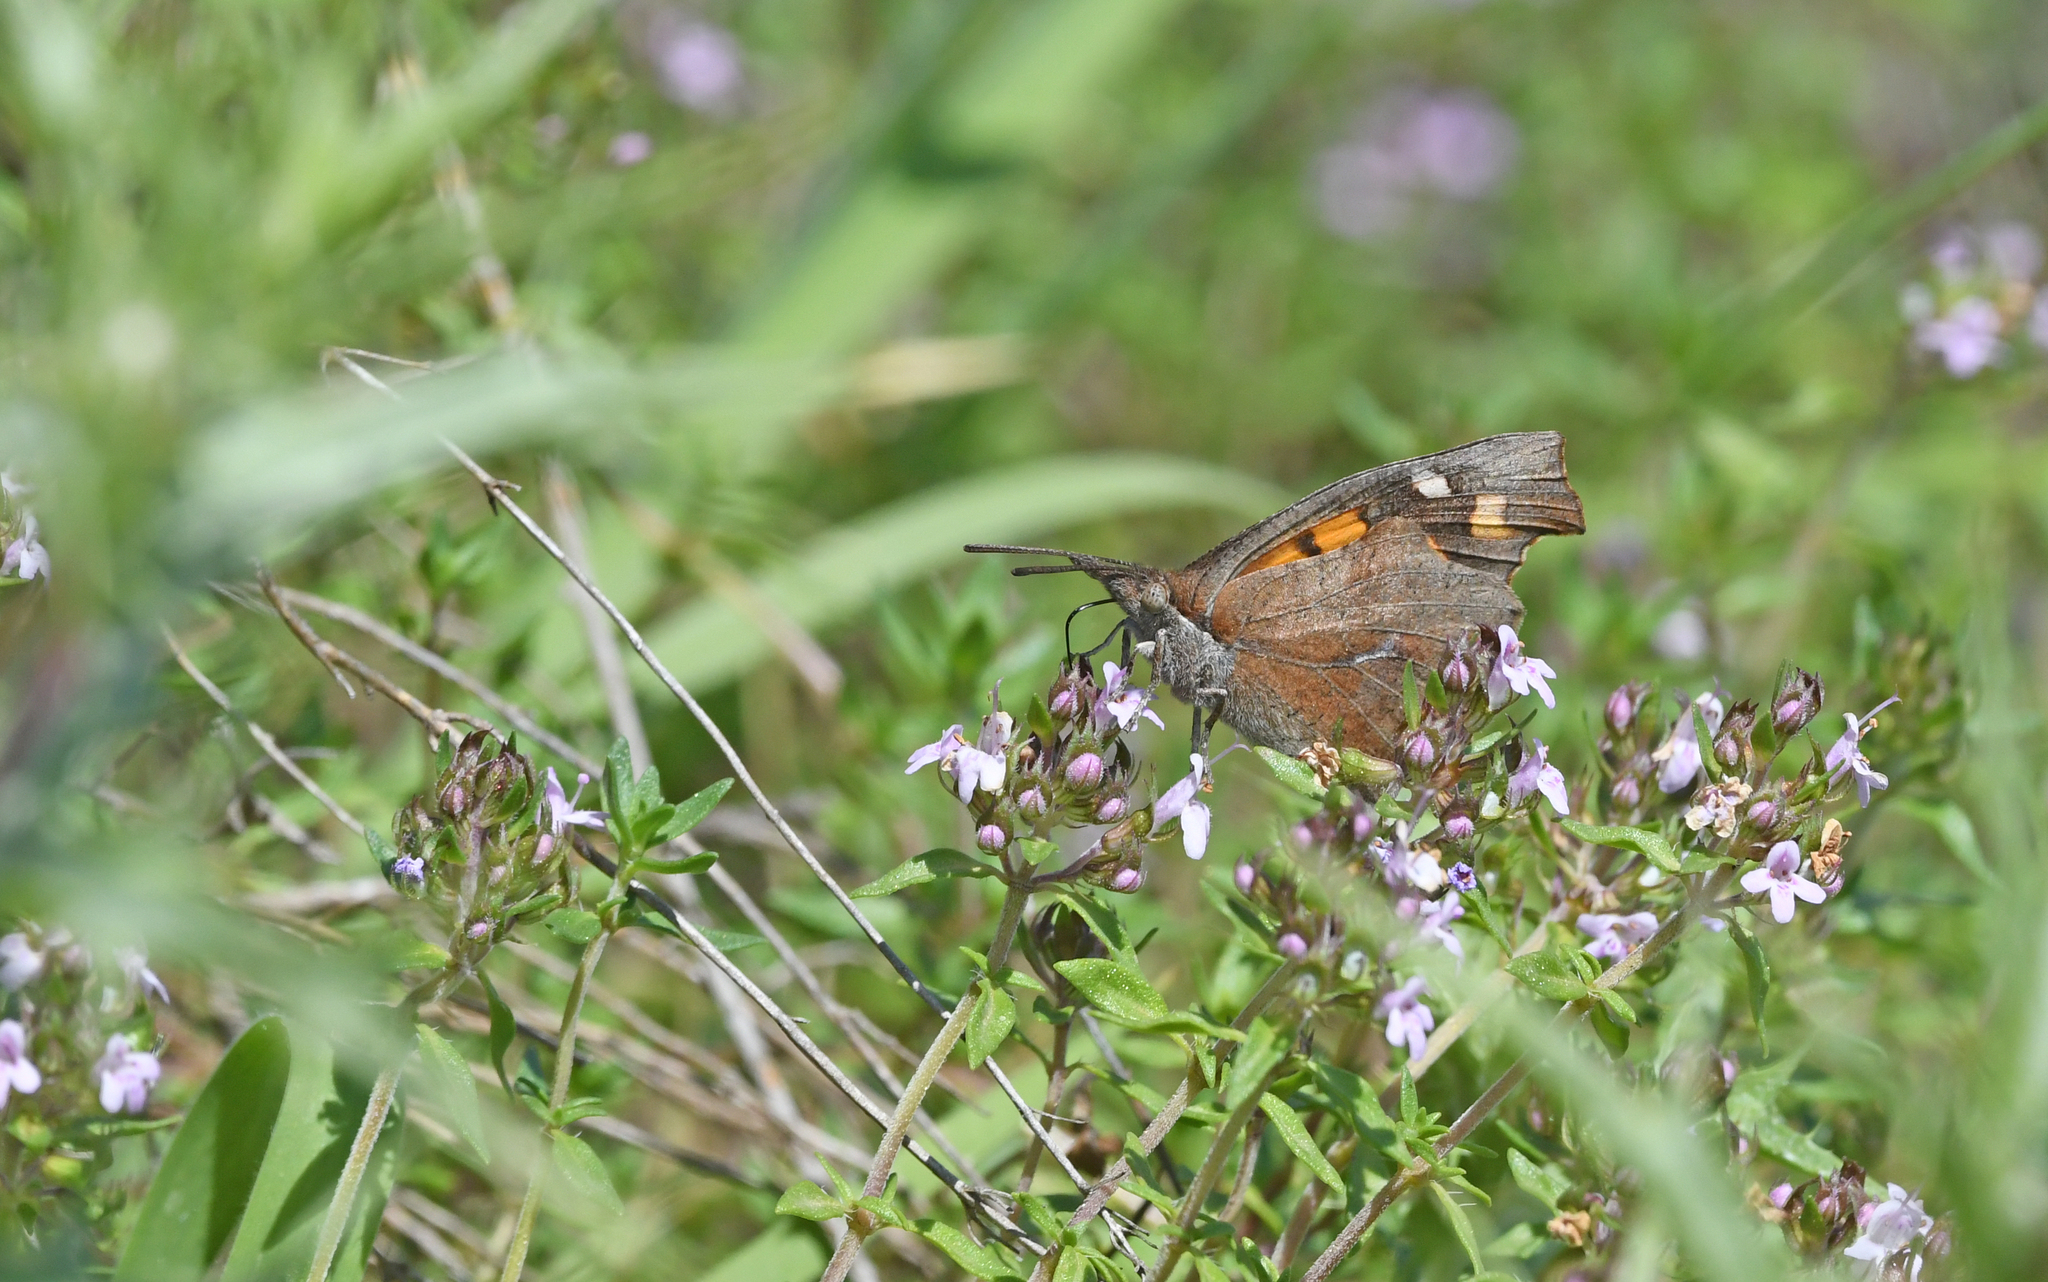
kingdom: Animalia
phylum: Arthropoda
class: Insecta
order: Lepidoptera
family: Nymphalidae
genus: Libythea
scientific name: Libythea celtis
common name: Nettle-tree butterfly
